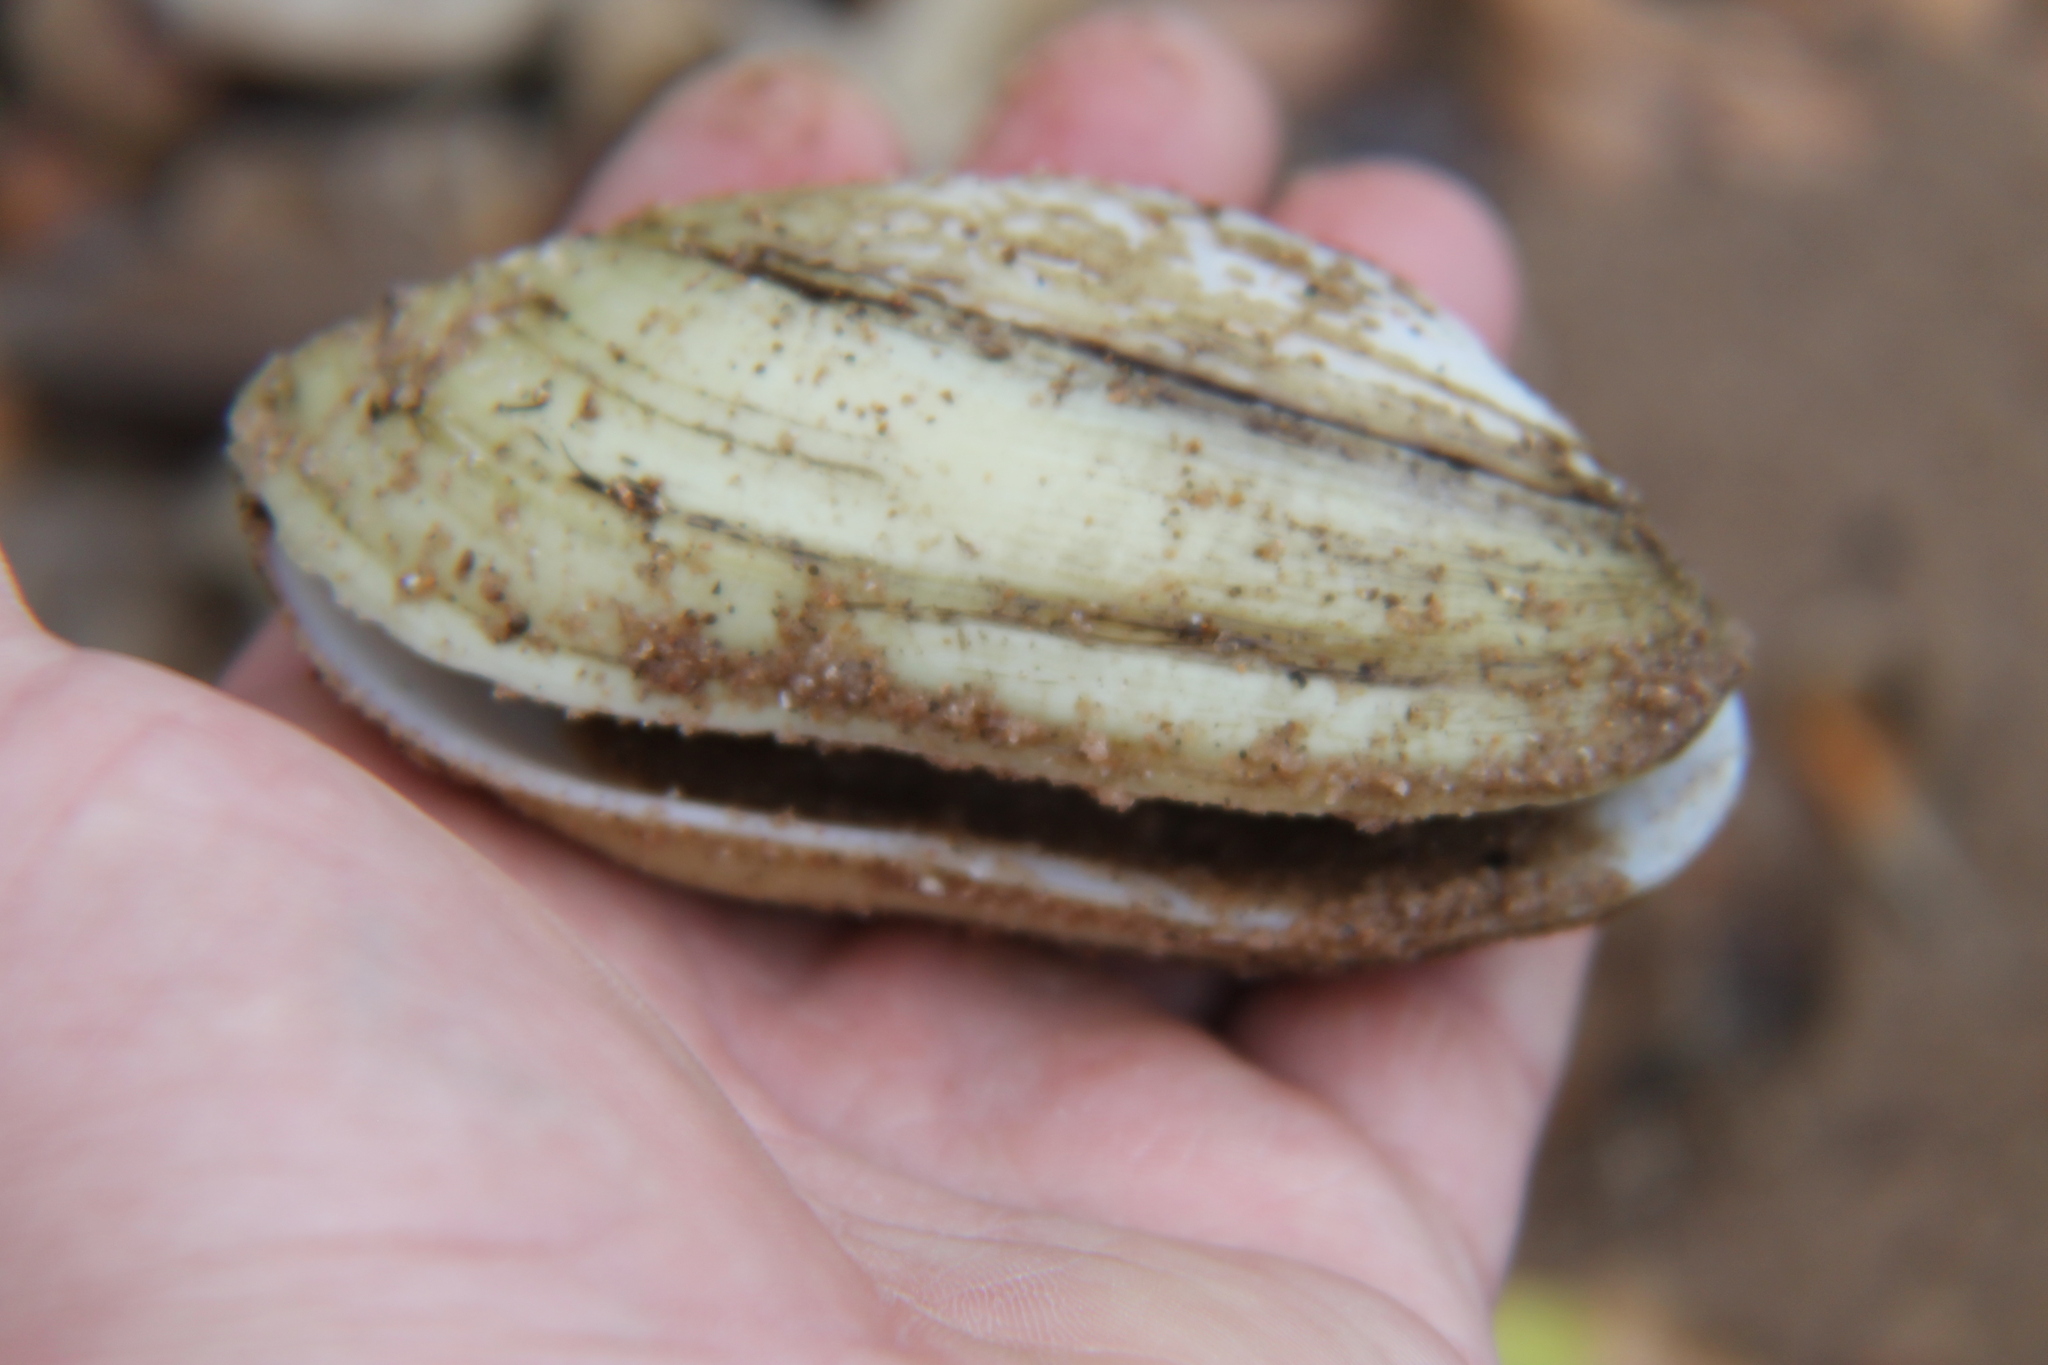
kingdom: Animalia
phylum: Mollusca
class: Bivalvia
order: Unionida
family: Unionidae
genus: Lampsilis
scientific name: Lampsilis teres
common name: Yellow sandshell
